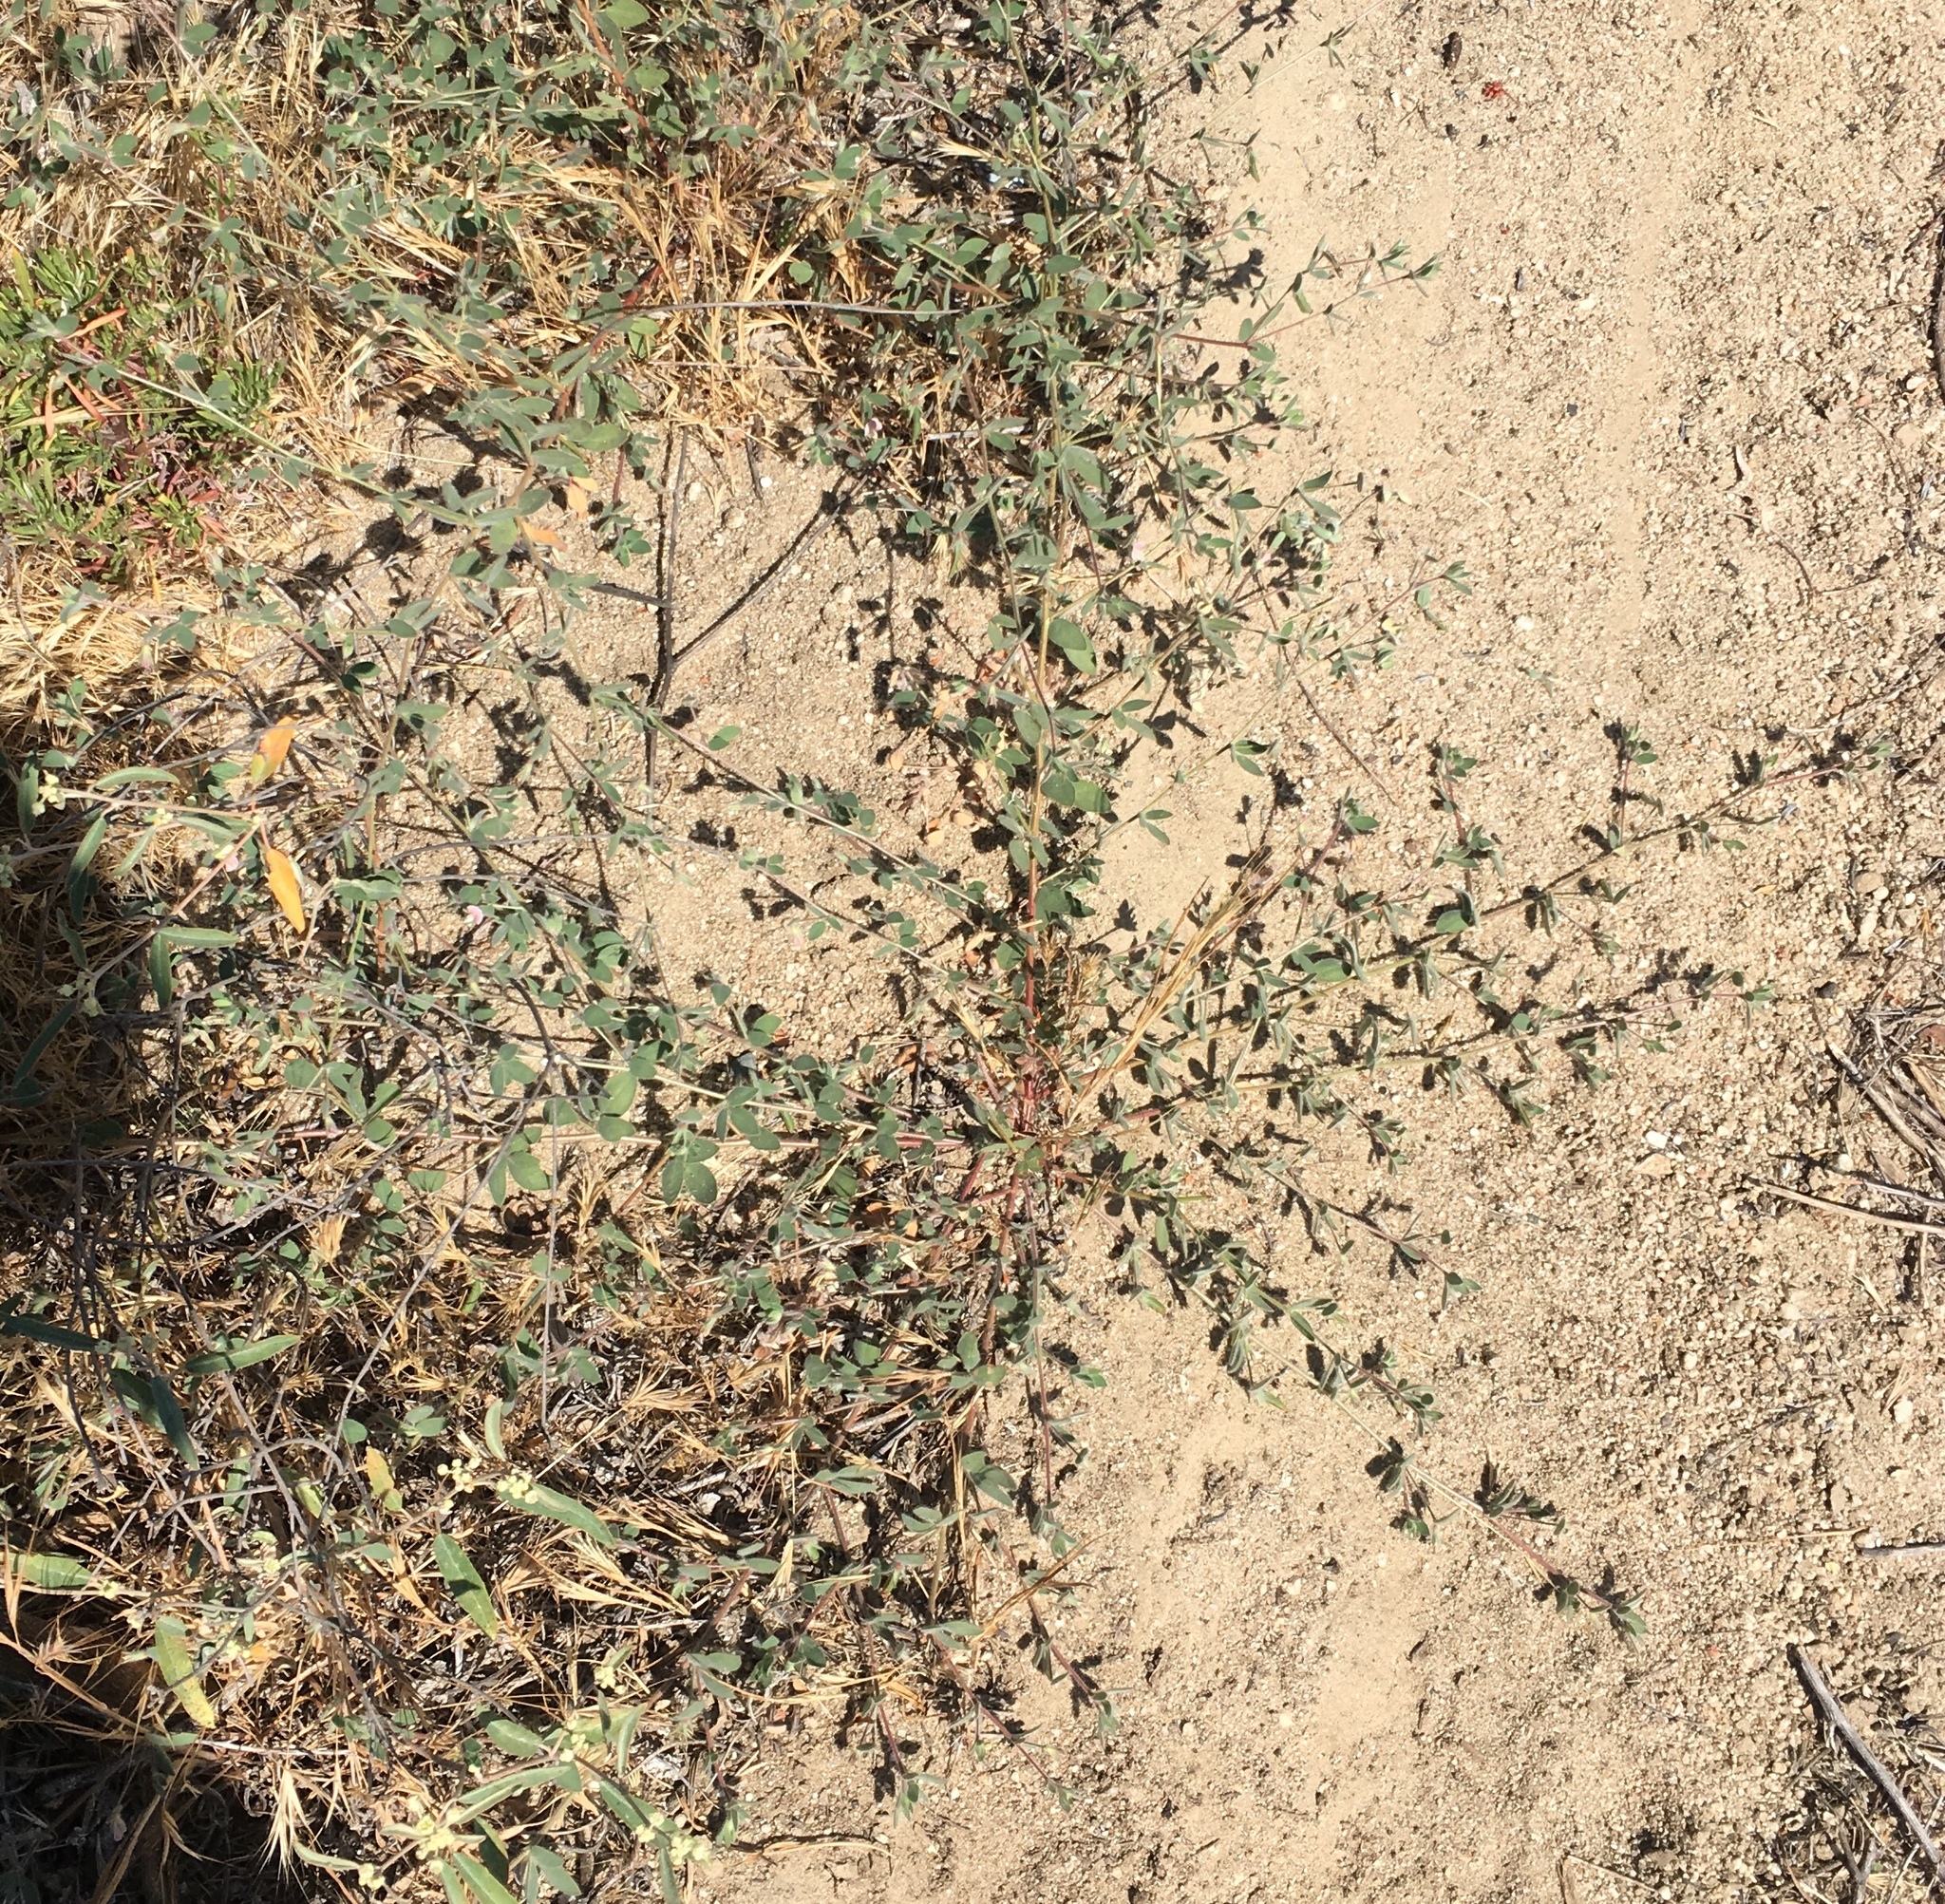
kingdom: Plantae
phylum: Tracheophyta
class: Magnoliopsida
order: Fabales
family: Fabaceae
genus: Acmispon
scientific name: Acmispon americanus
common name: American bird's-foot trefoil
